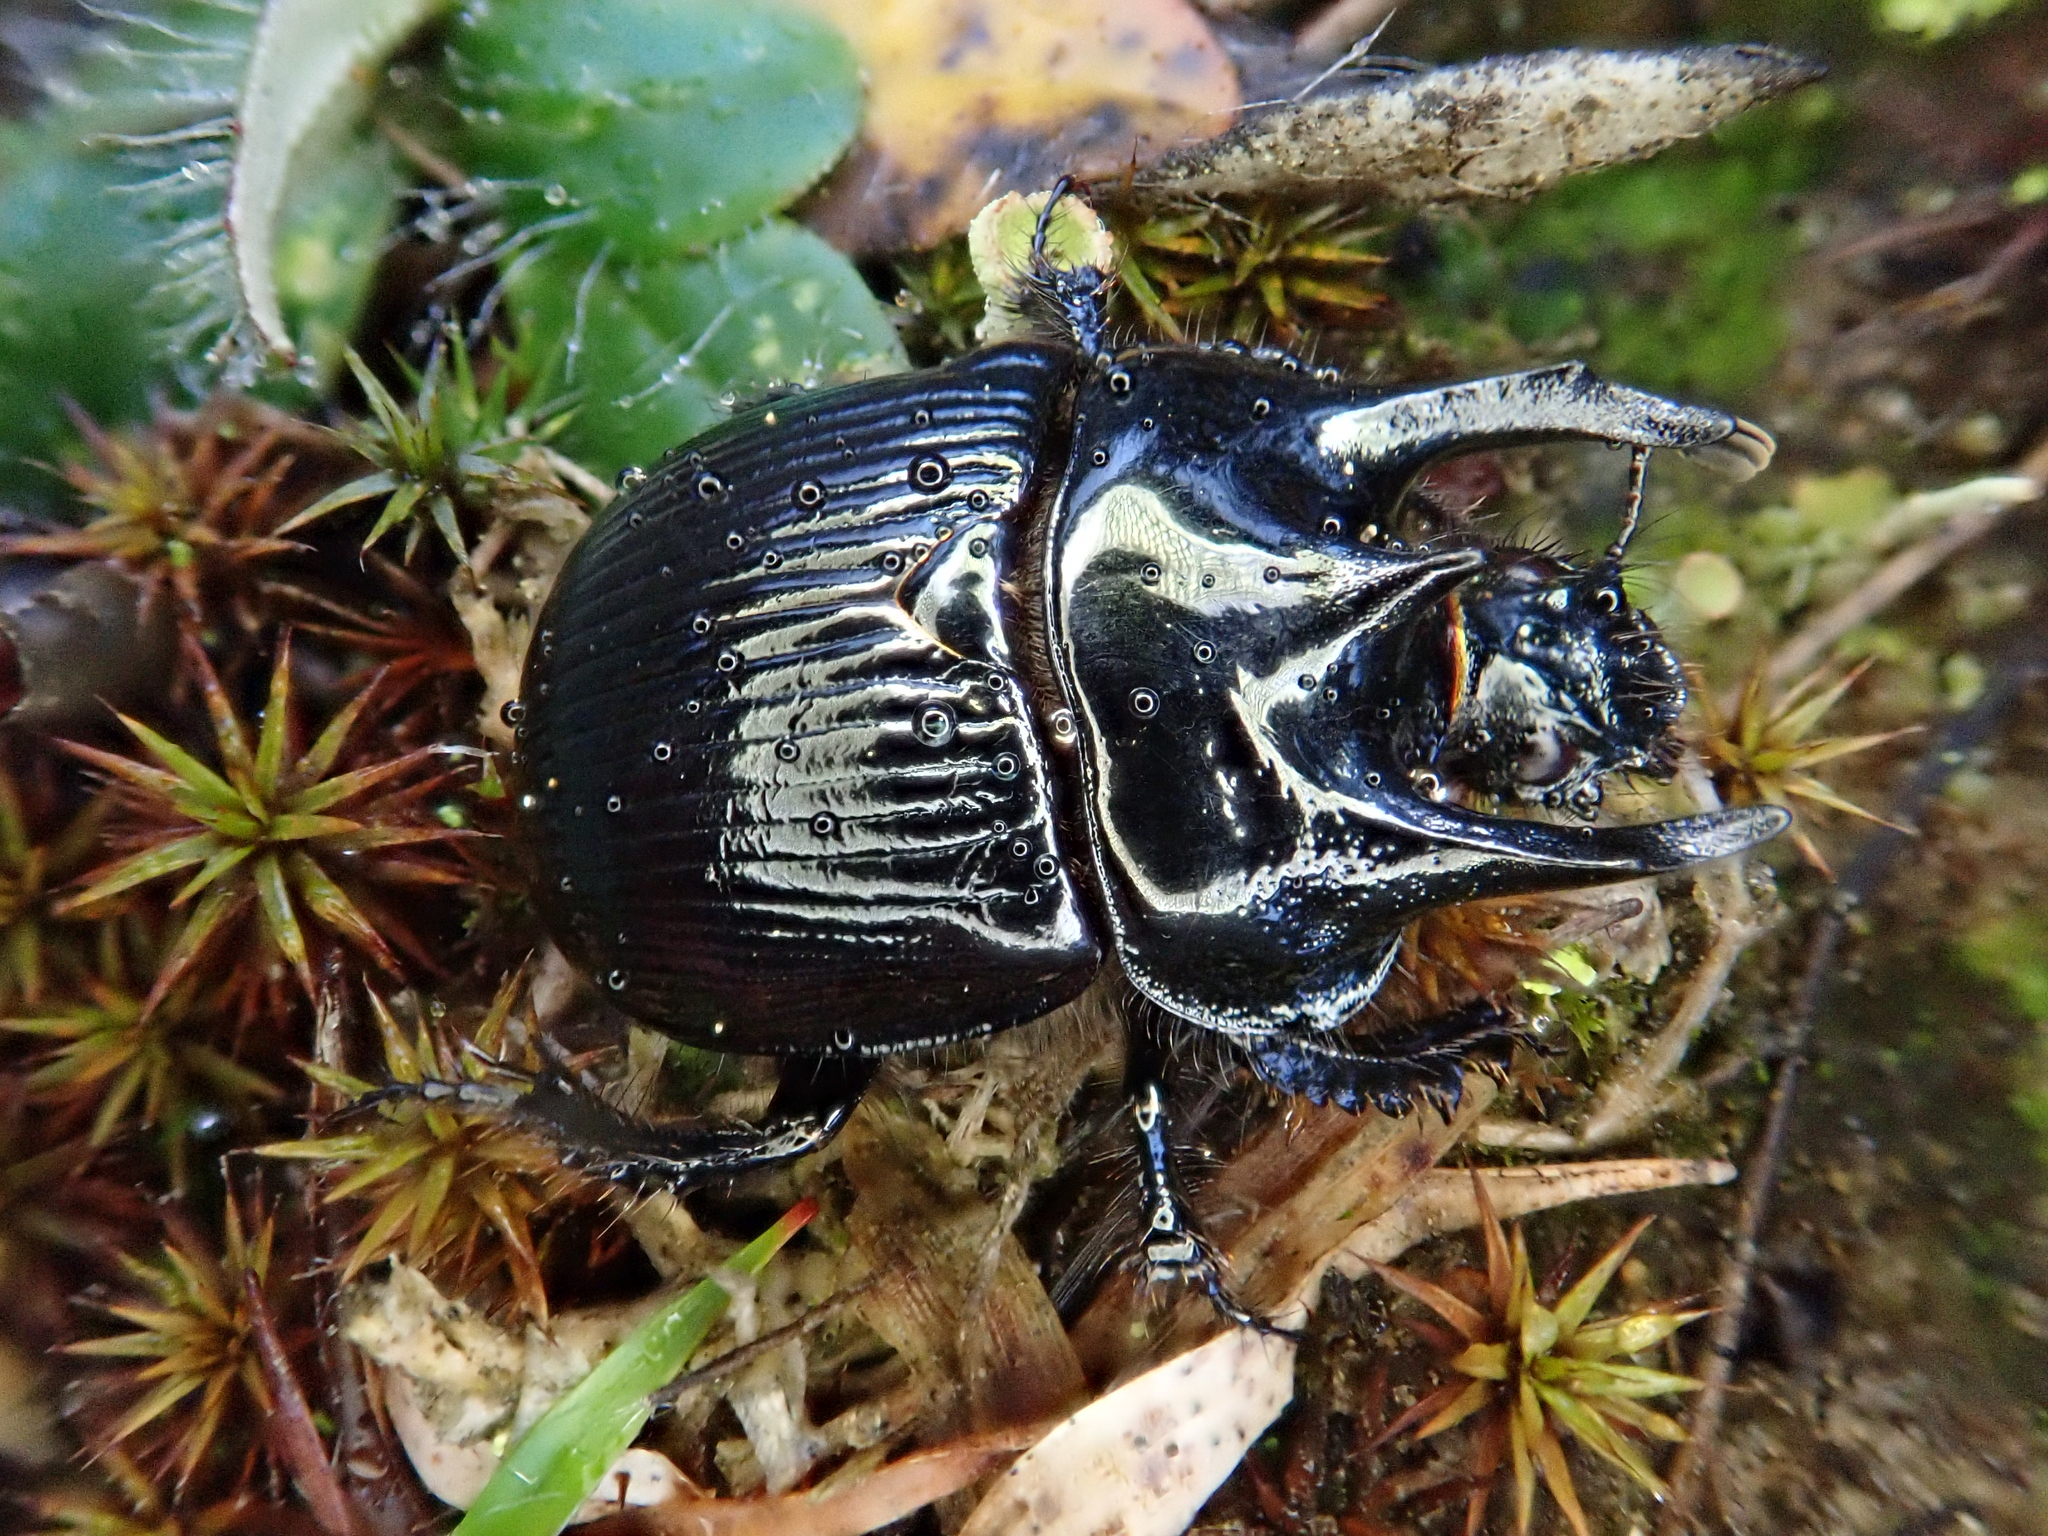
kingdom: Animalia
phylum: Arthropoda
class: Insecta
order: Coleoptera
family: Geotrupidae
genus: Typhaeus
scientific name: Typhaeus typhoeus
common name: Minotaur beetle
